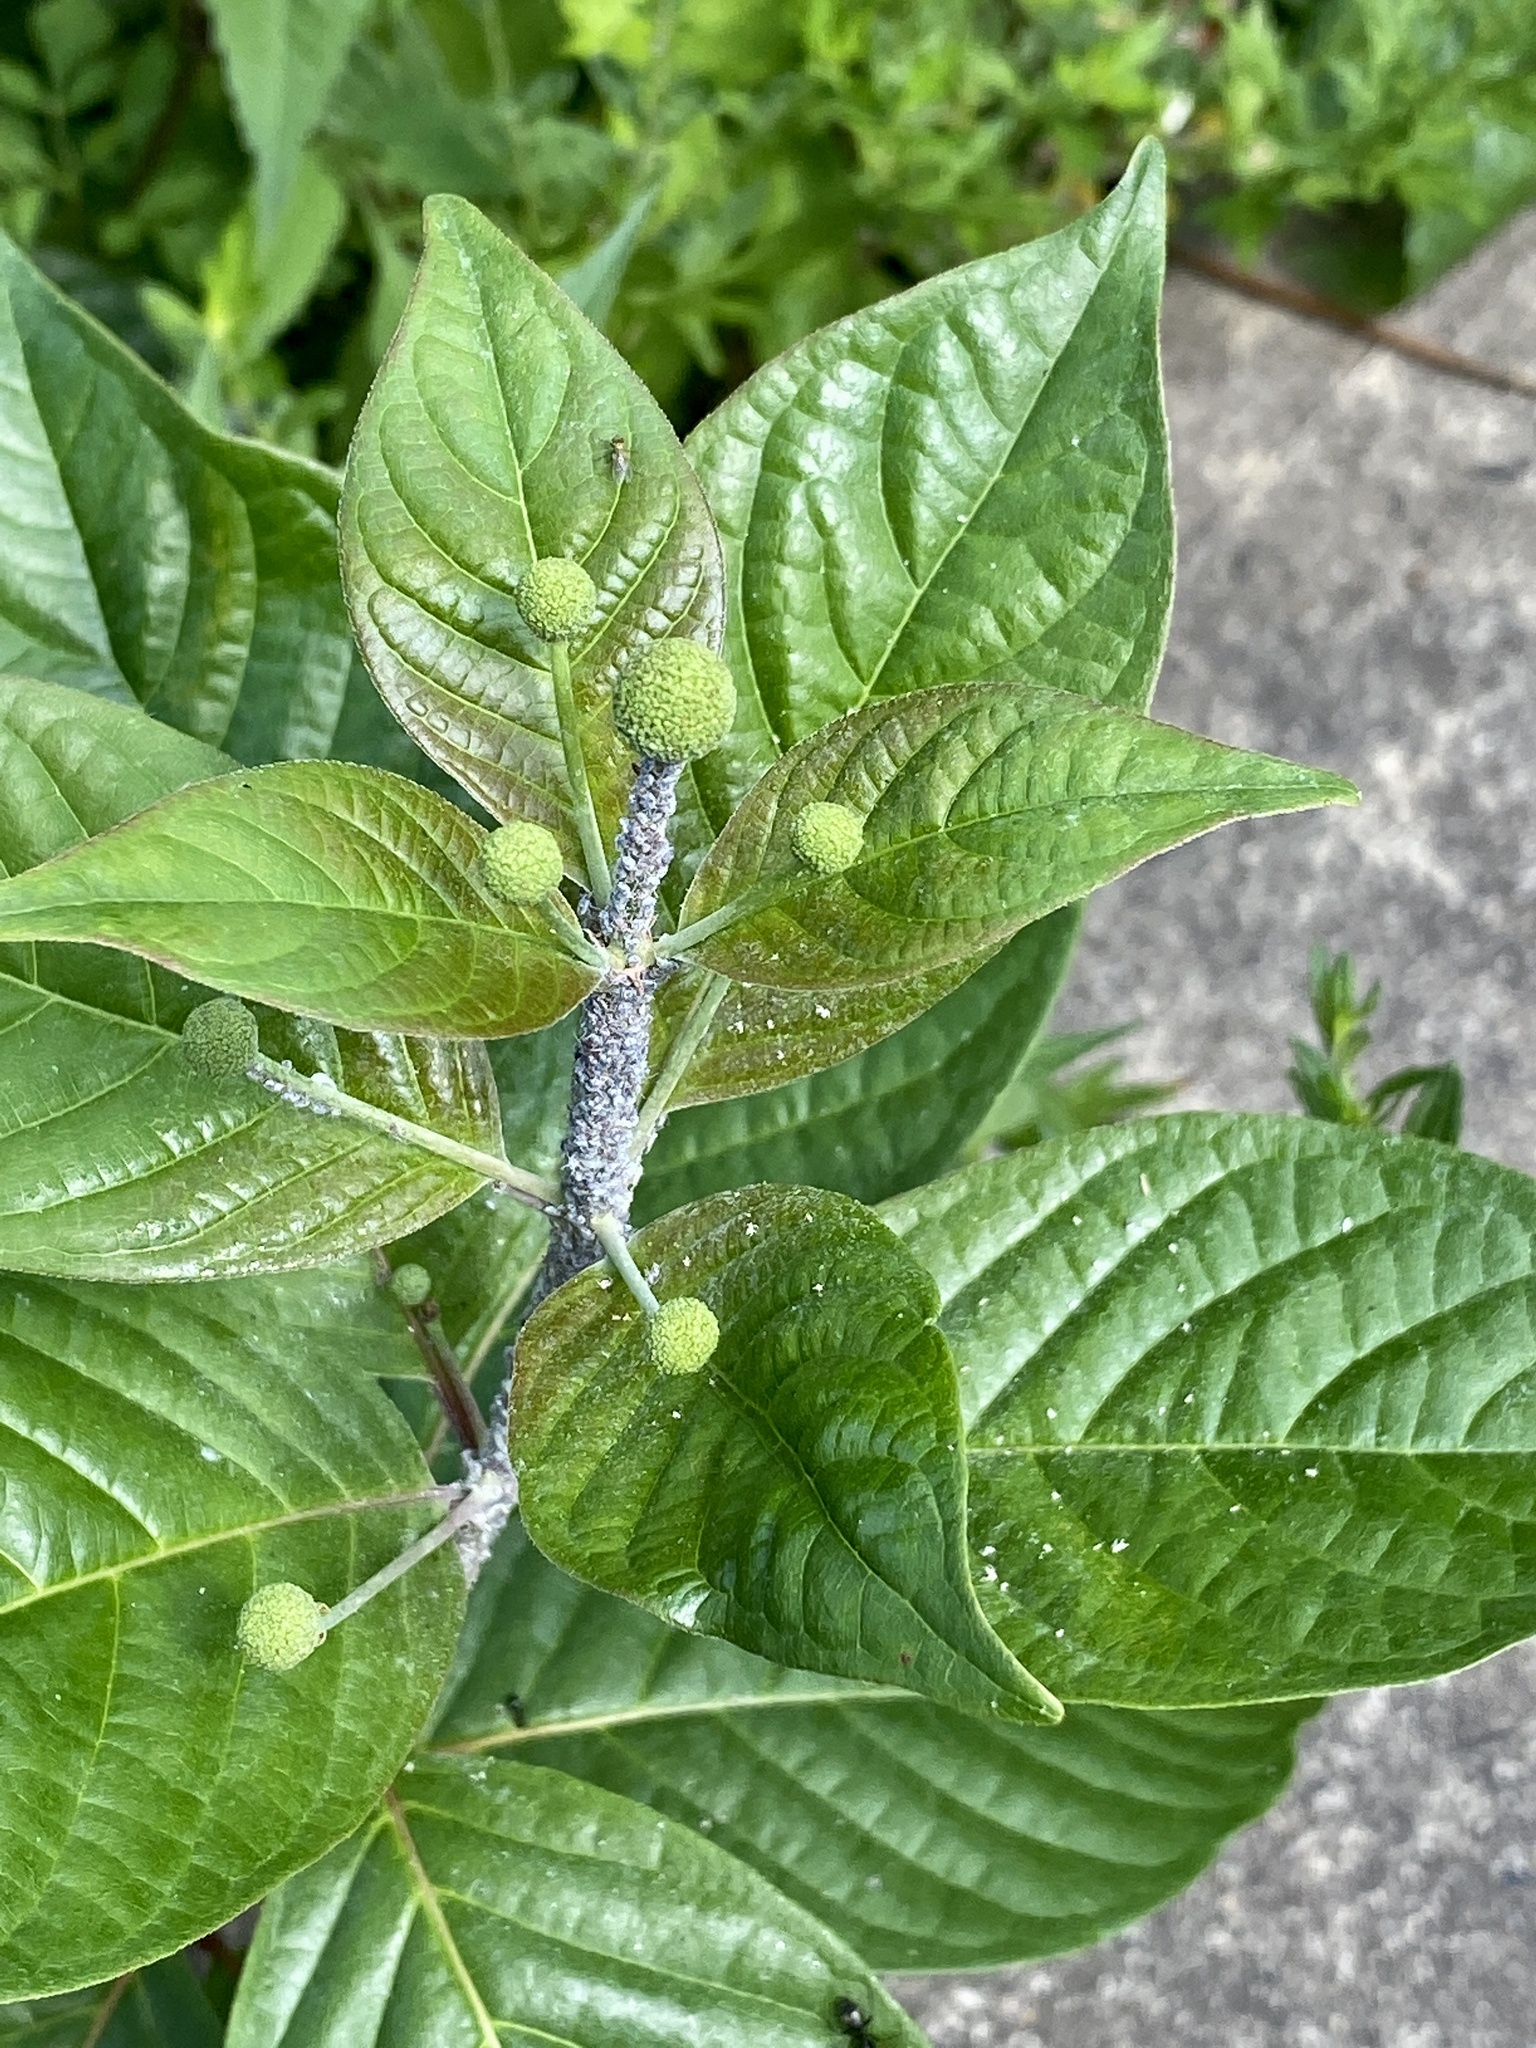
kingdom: Plantae
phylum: Tracheophyta
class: Magnoliopsida
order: Gentianales
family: Rubiaceae
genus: Cephalanthus
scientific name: Cephalanthus occidentalis
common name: Button-willow
